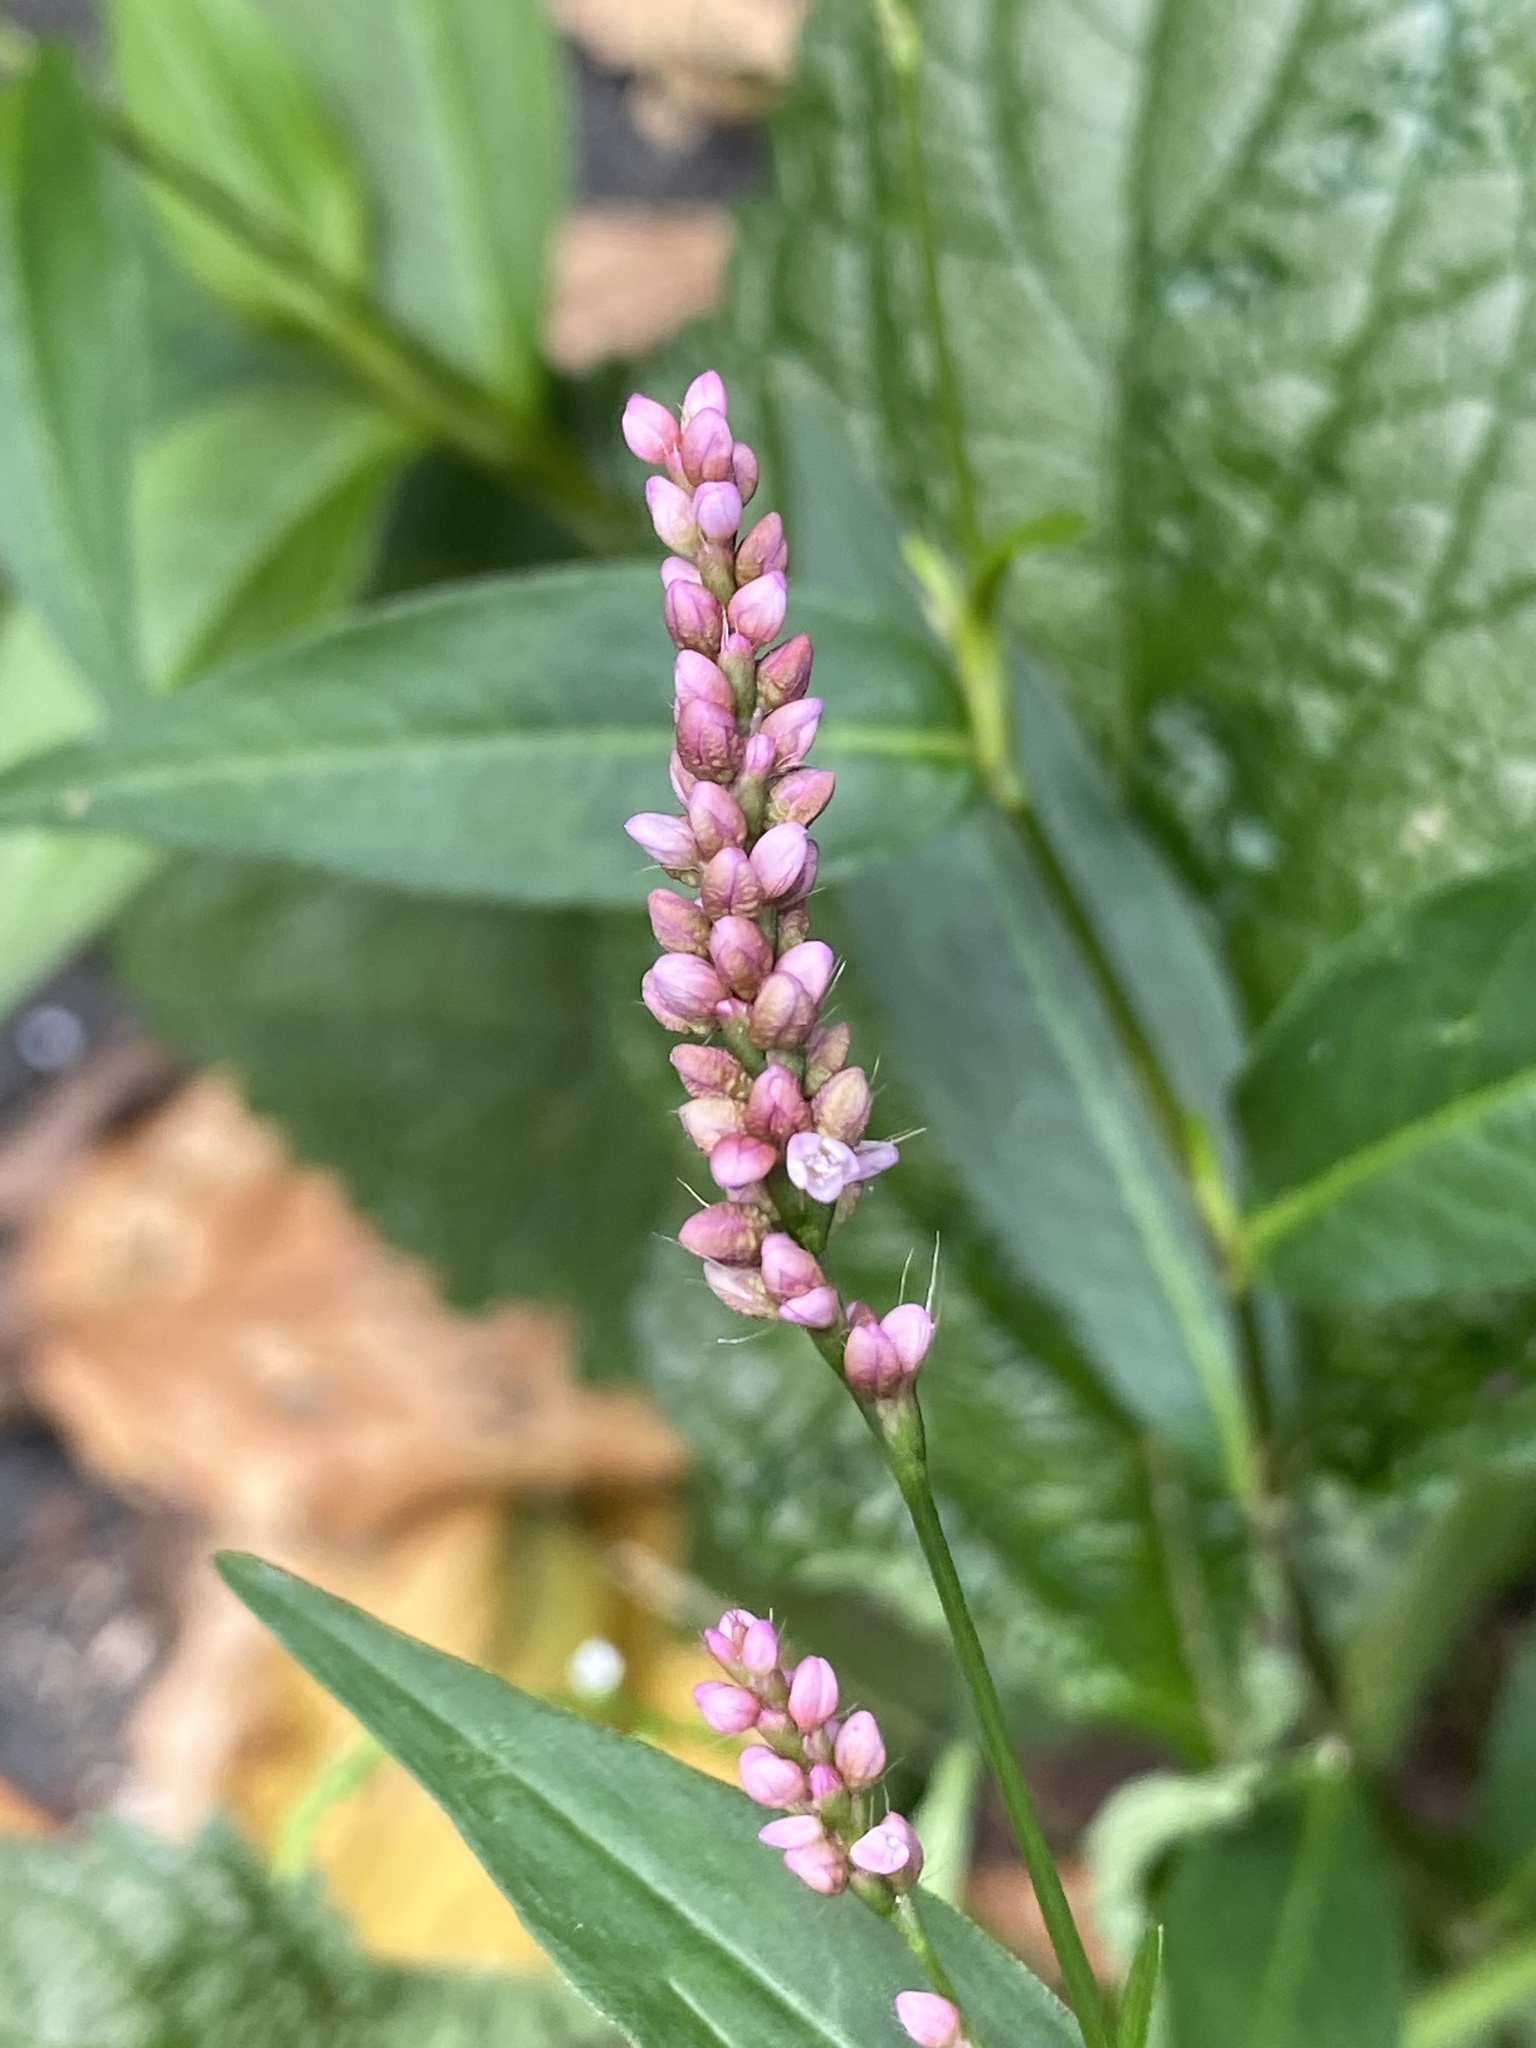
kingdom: Plantae
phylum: Tracheophyta
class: Magnoliopsida
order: Caryophyllales
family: Polygonaceae
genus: Persicaria
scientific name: Persicaria longiseta
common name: Bristly lady's-thumb
